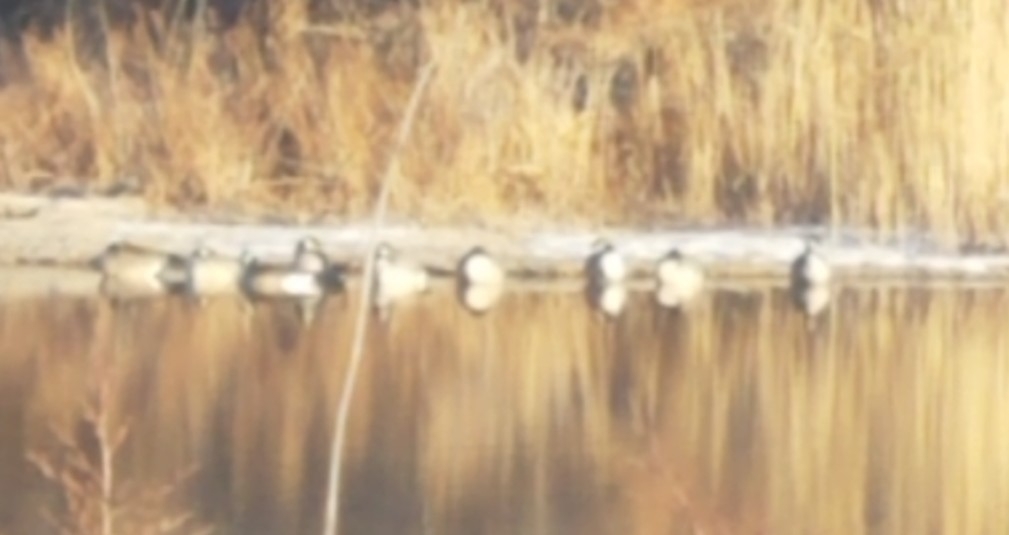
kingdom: Animalia
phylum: Chordata
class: Aves
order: Anseriformes
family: Anatidae
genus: Branta
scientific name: Branta canadensis
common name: Canada goose
